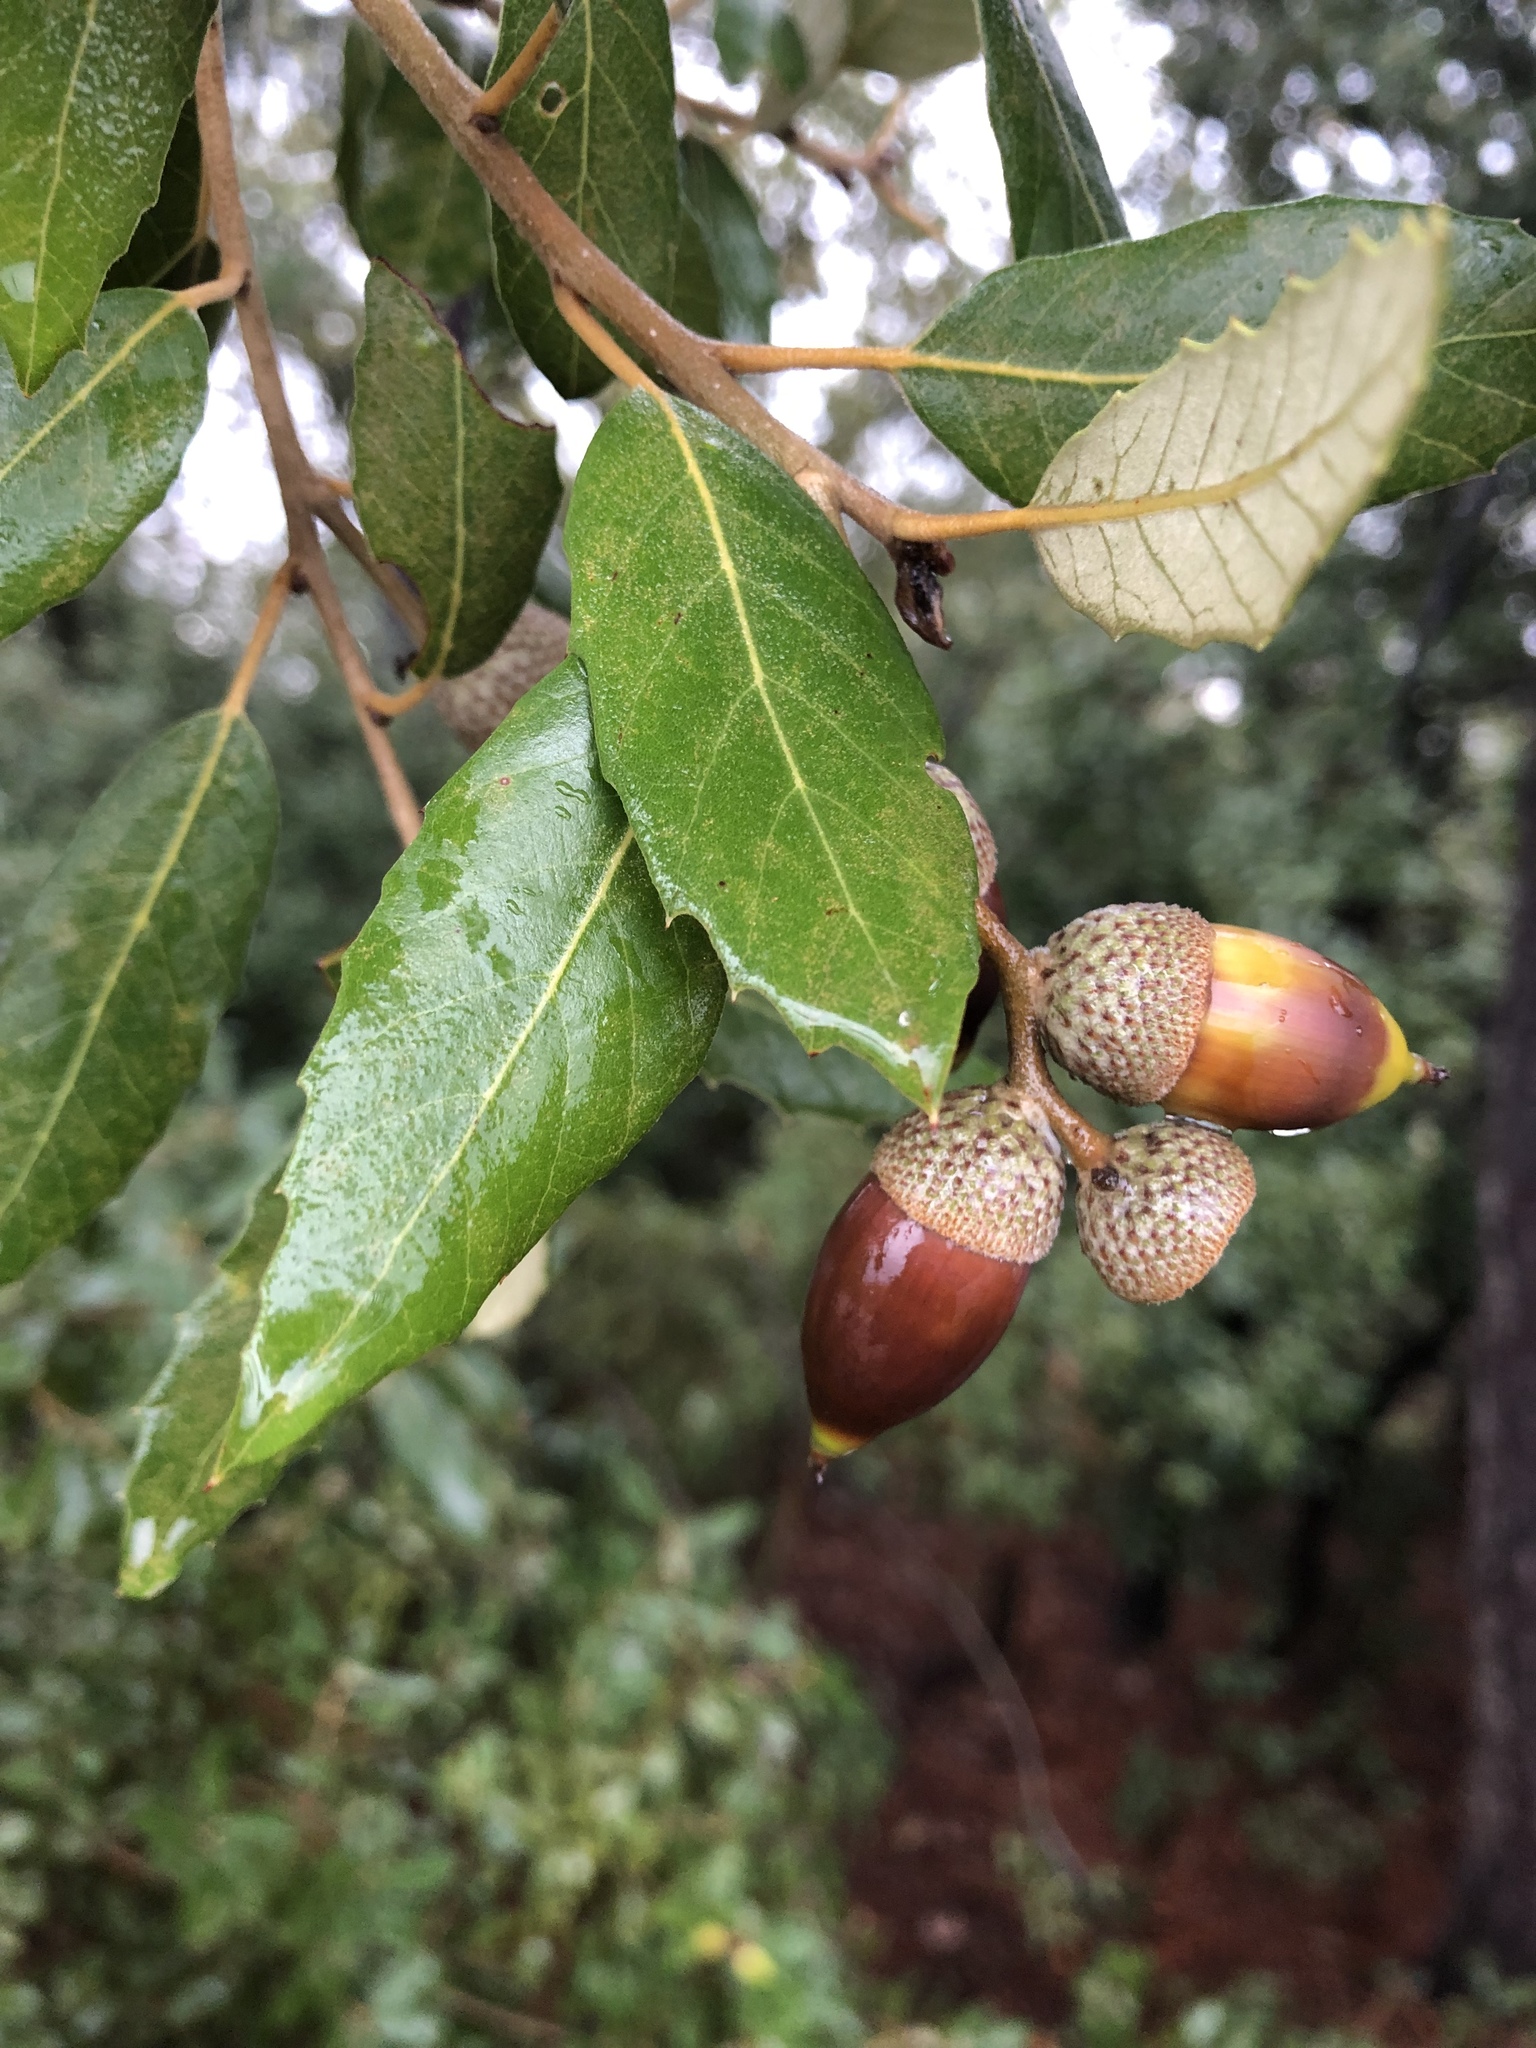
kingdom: Plantae
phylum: Tracheophyta
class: Magnoliopsida
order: Fagales
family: Fagaceae
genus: Quercus
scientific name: Quercus ilex
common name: Evergreen oak
